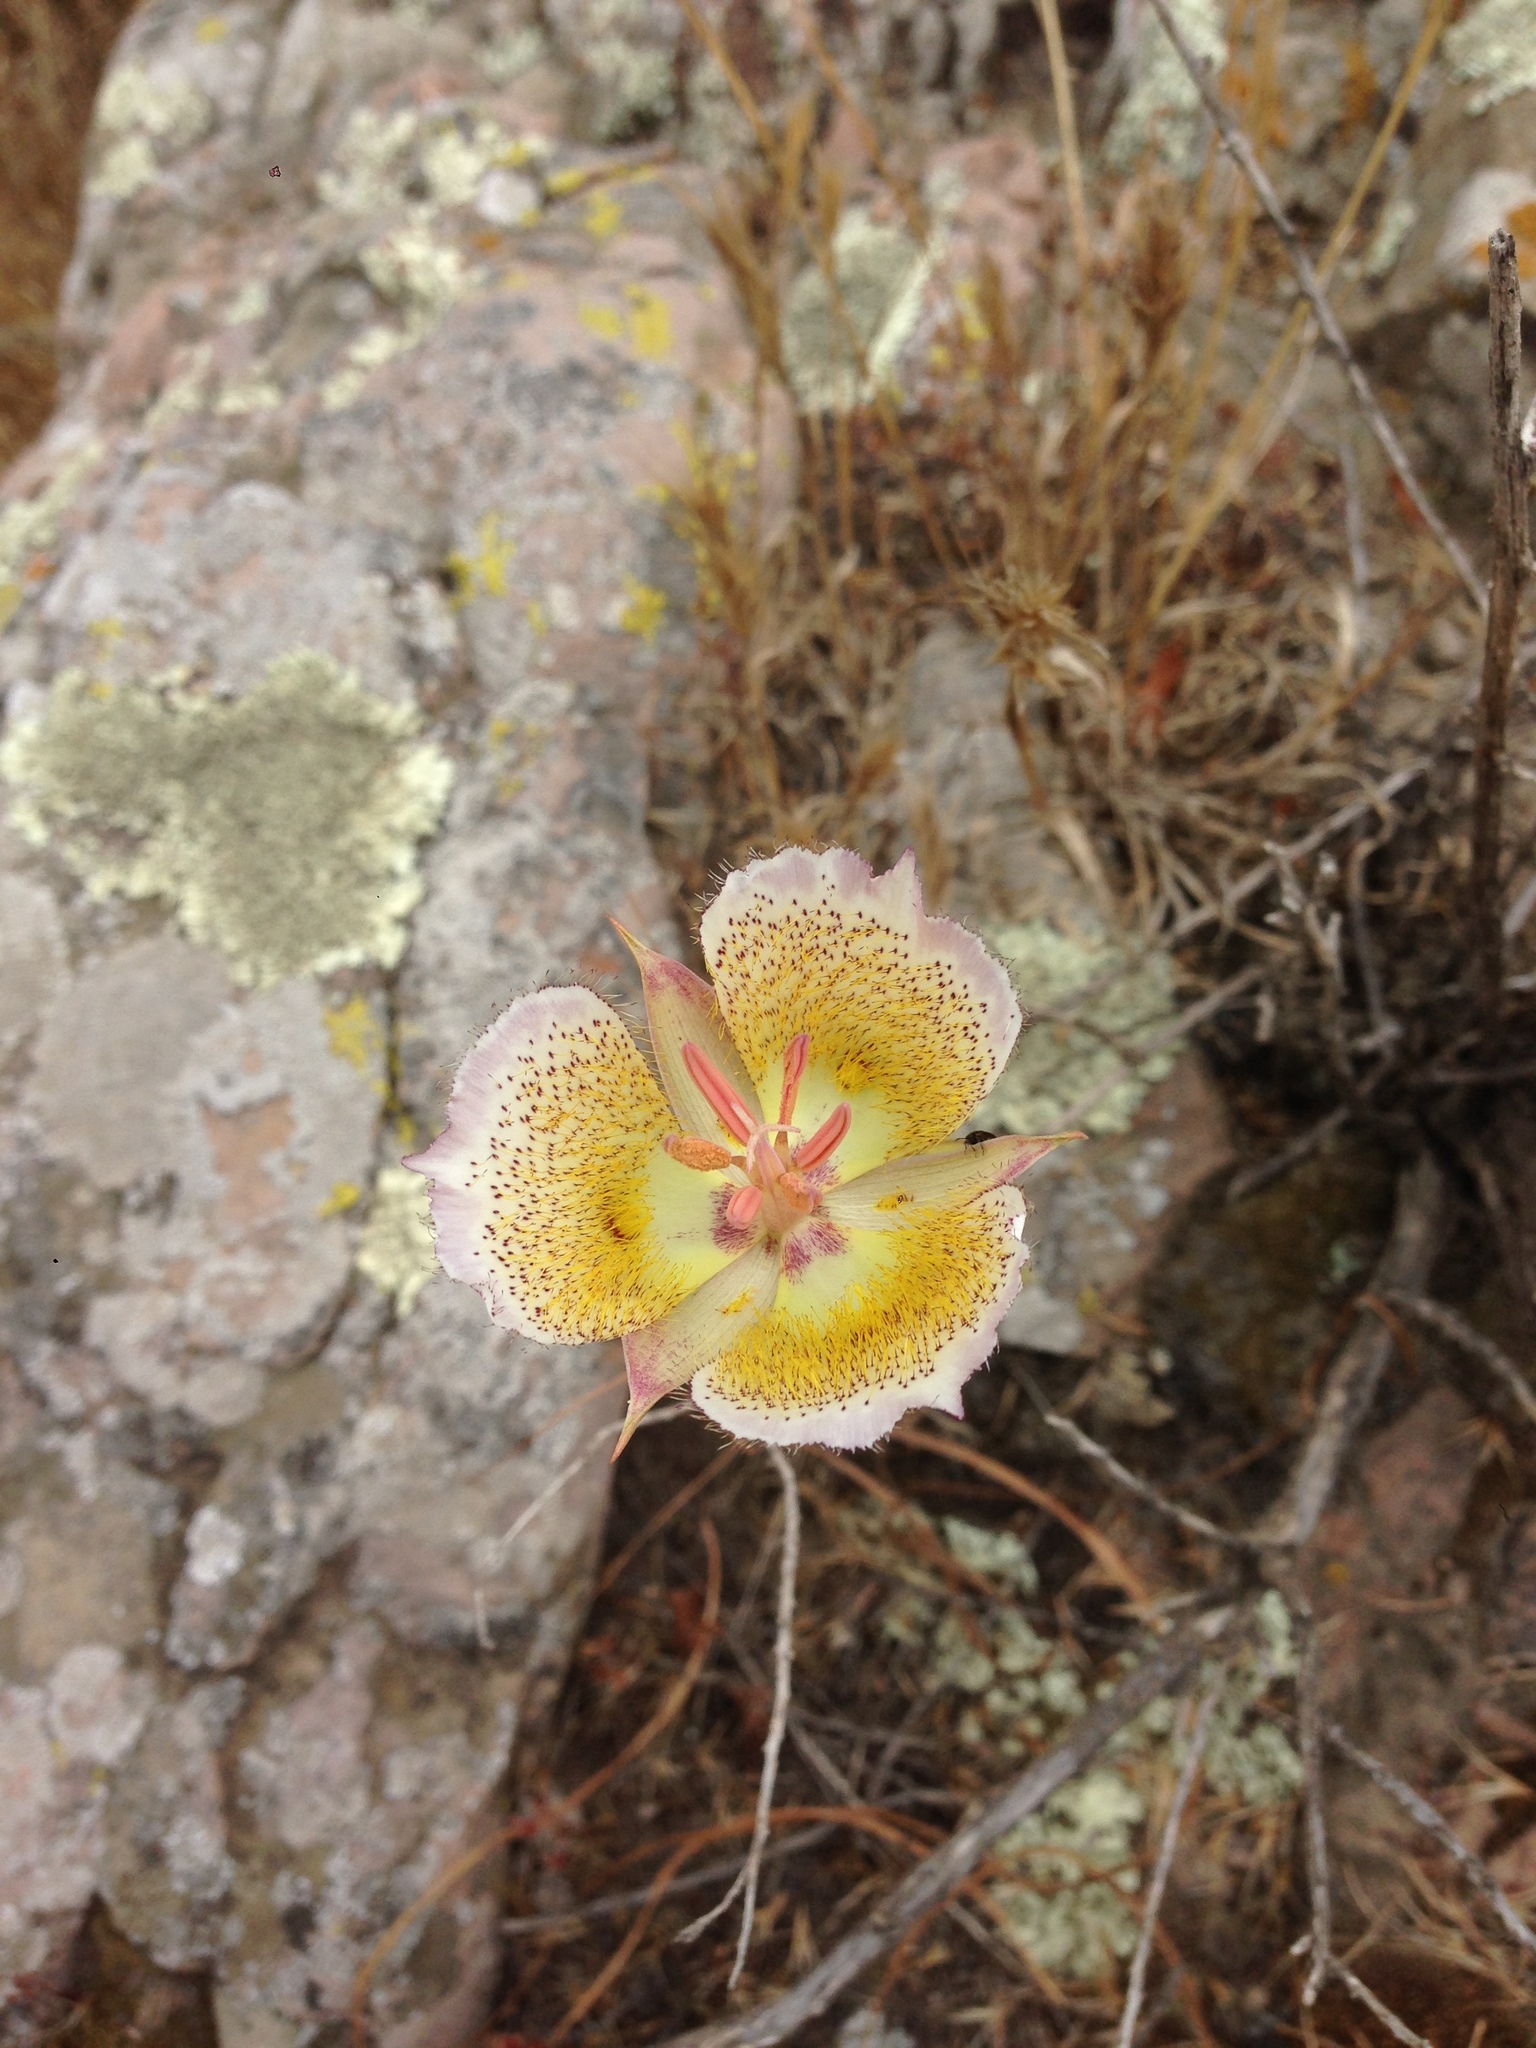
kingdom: Plantae
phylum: Tracheophyta
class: Liliopsida
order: Liliales
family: Liliaceae
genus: Calochortus
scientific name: Calochortus plummerae
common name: Plummer's mariposa-lily
